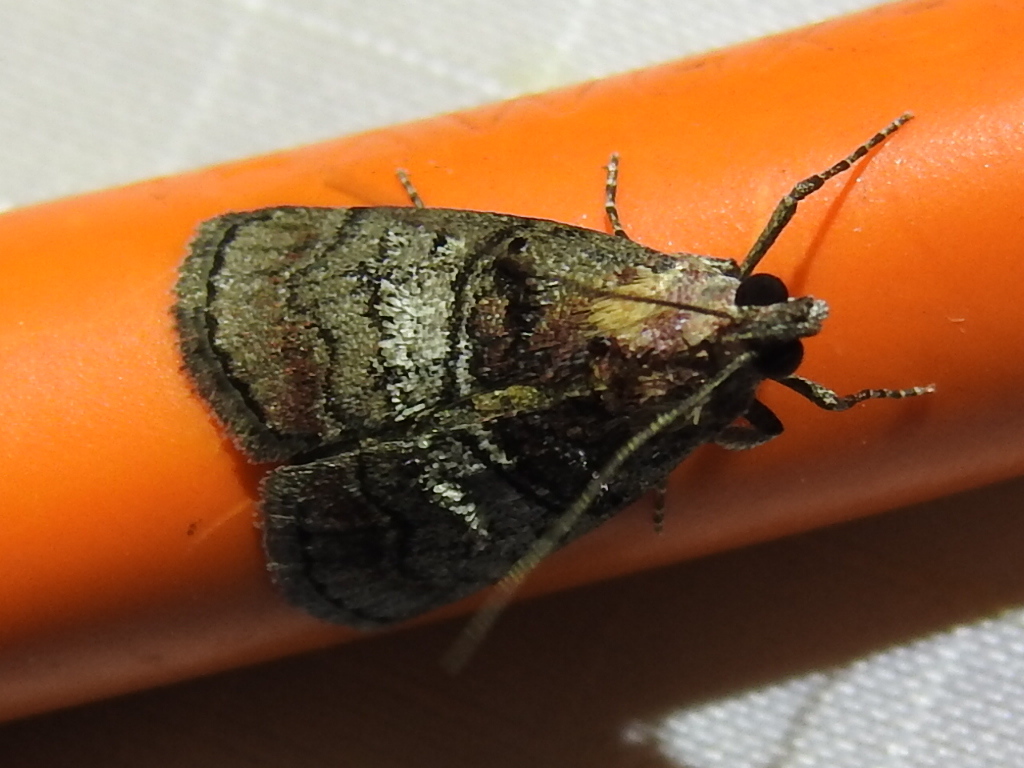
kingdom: Animalia
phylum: Arthropoda
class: Insecta
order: Lepidoptera
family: Pyralidae
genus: Pococera
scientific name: Pococera asperatella
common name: Maple webworm moth
